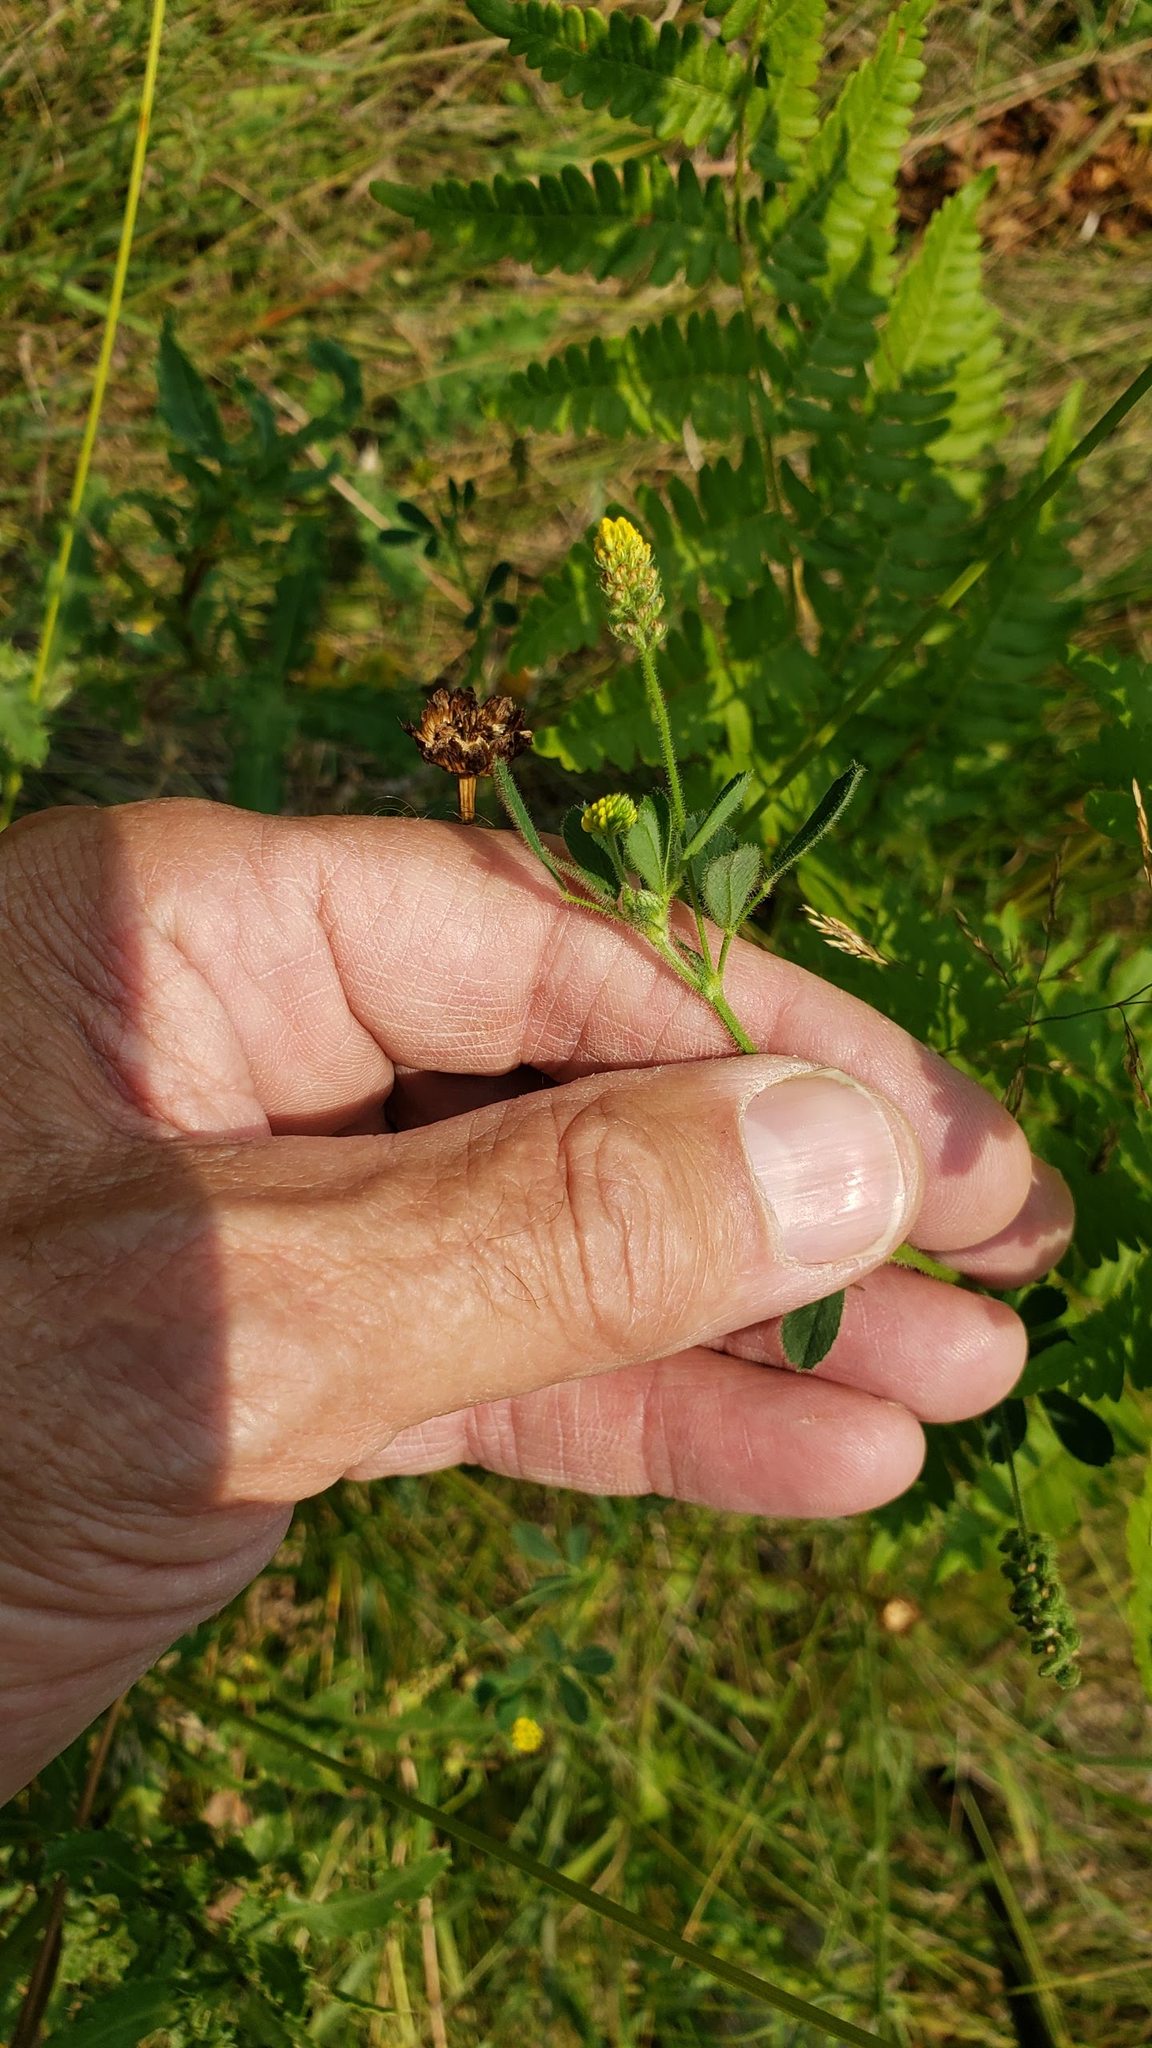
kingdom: Plantae
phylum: Tracheophyta
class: Magnoliopsida
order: Fabales
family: Fabaceae
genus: Medicago
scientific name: Medicago lupulina
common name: Black medick
